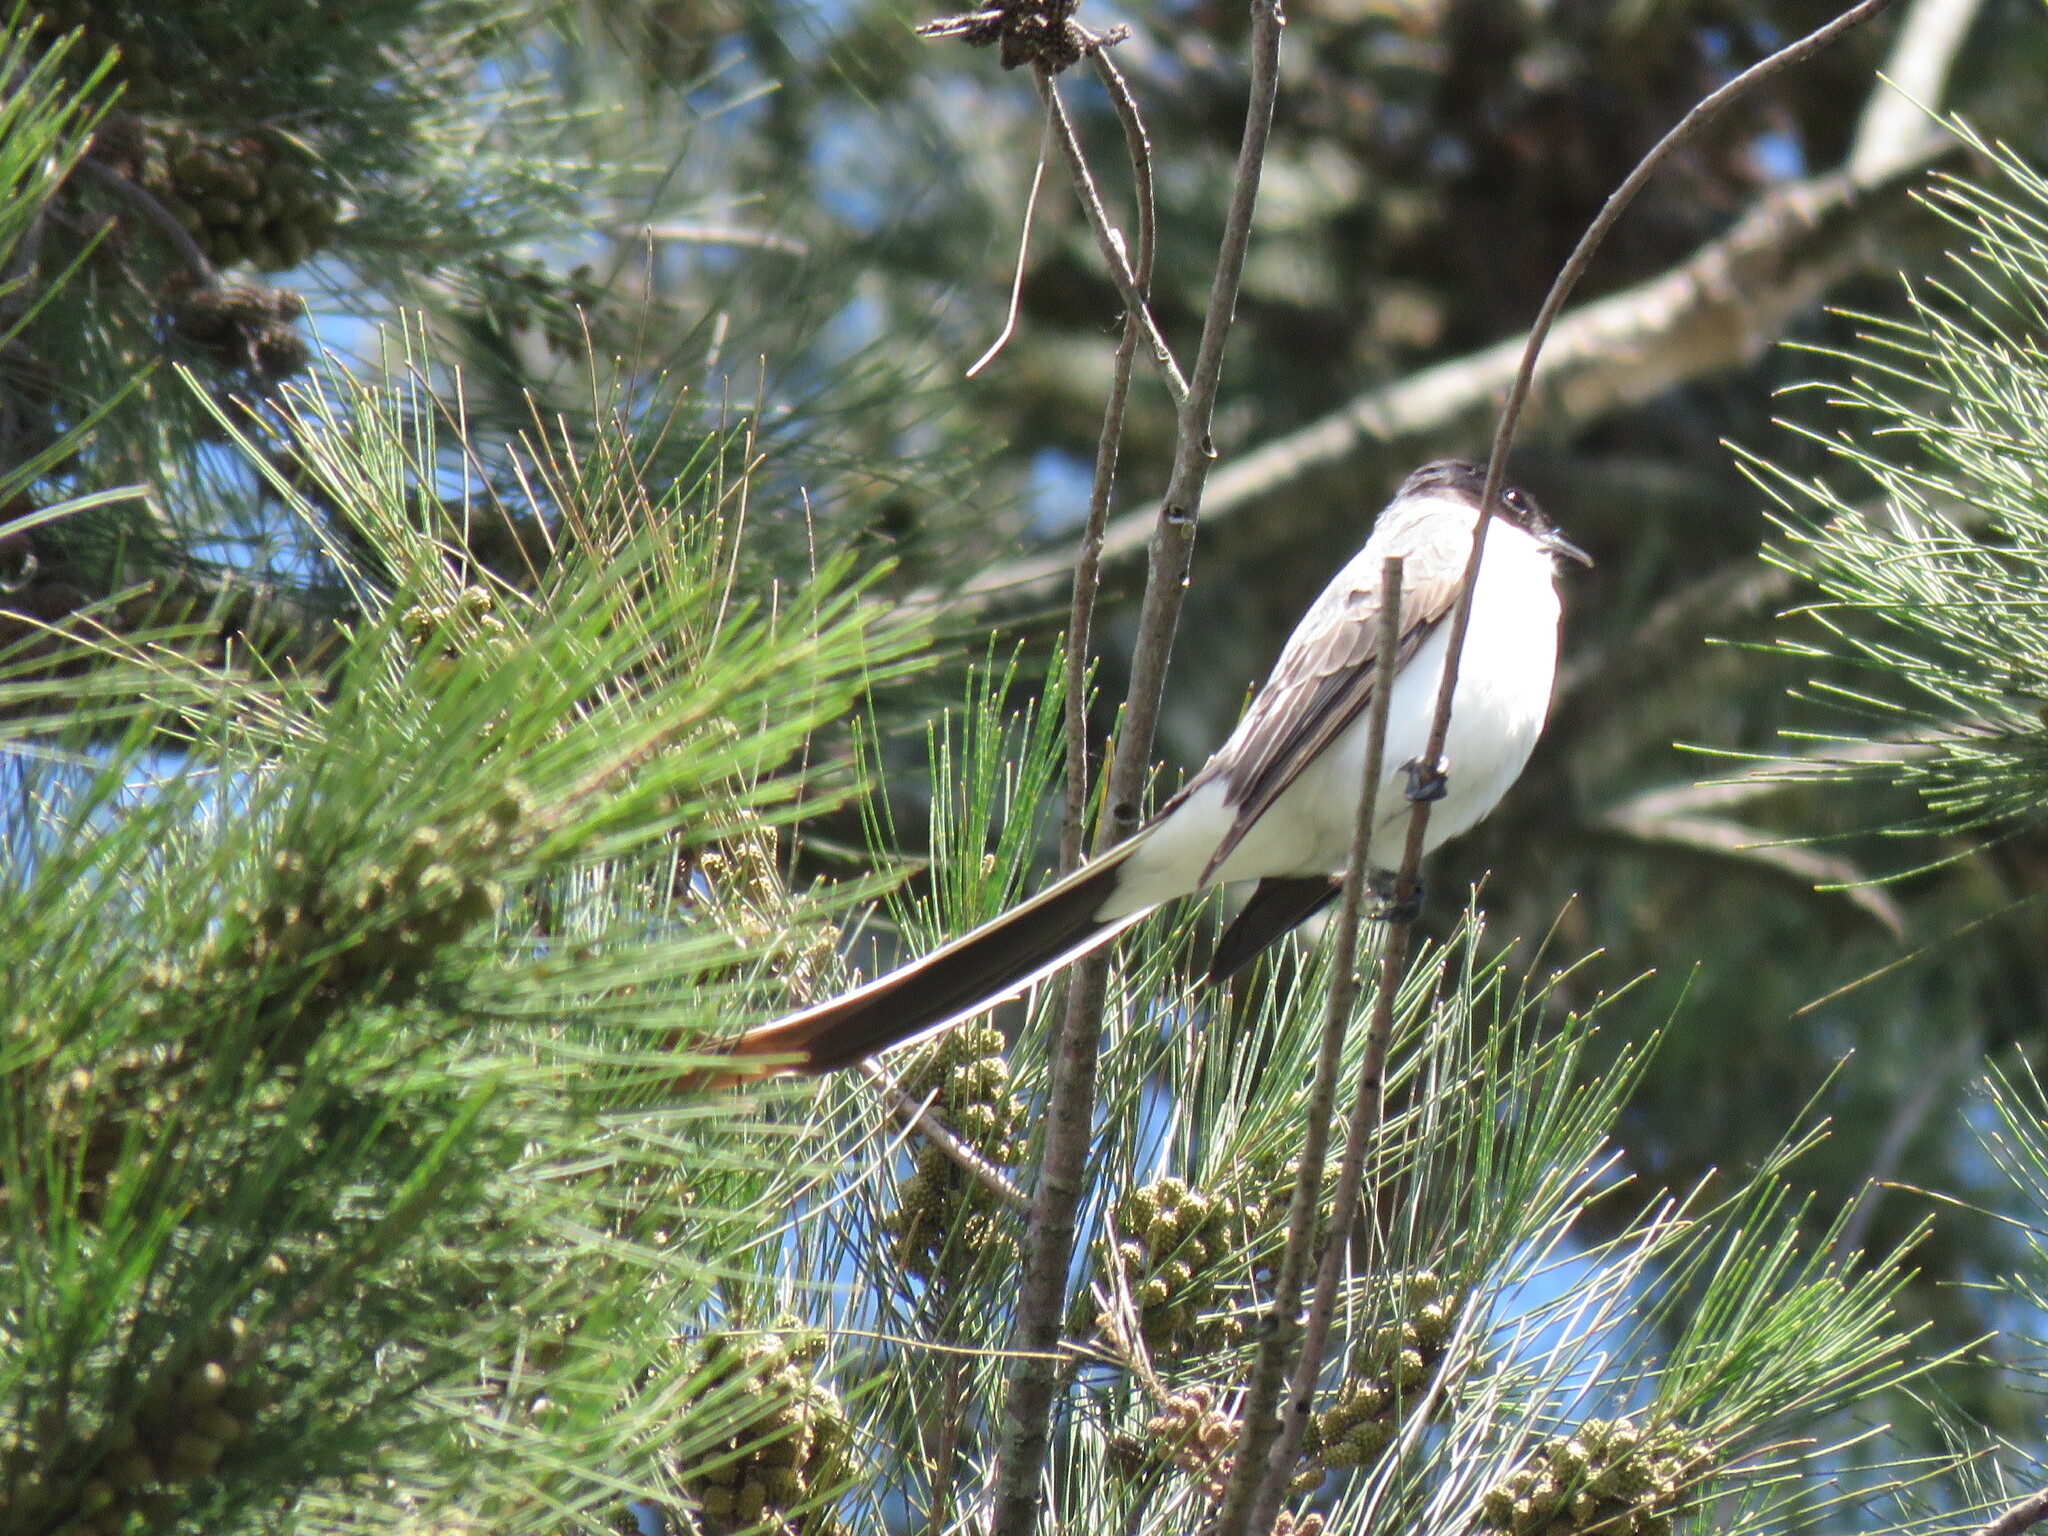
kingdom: Animalia
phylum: Chordata
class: Aves
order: Passeriformes
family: Tyrannidae
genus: Tyrannus
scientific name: Tyrannus savana
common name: Fork-tailed flycatcher
